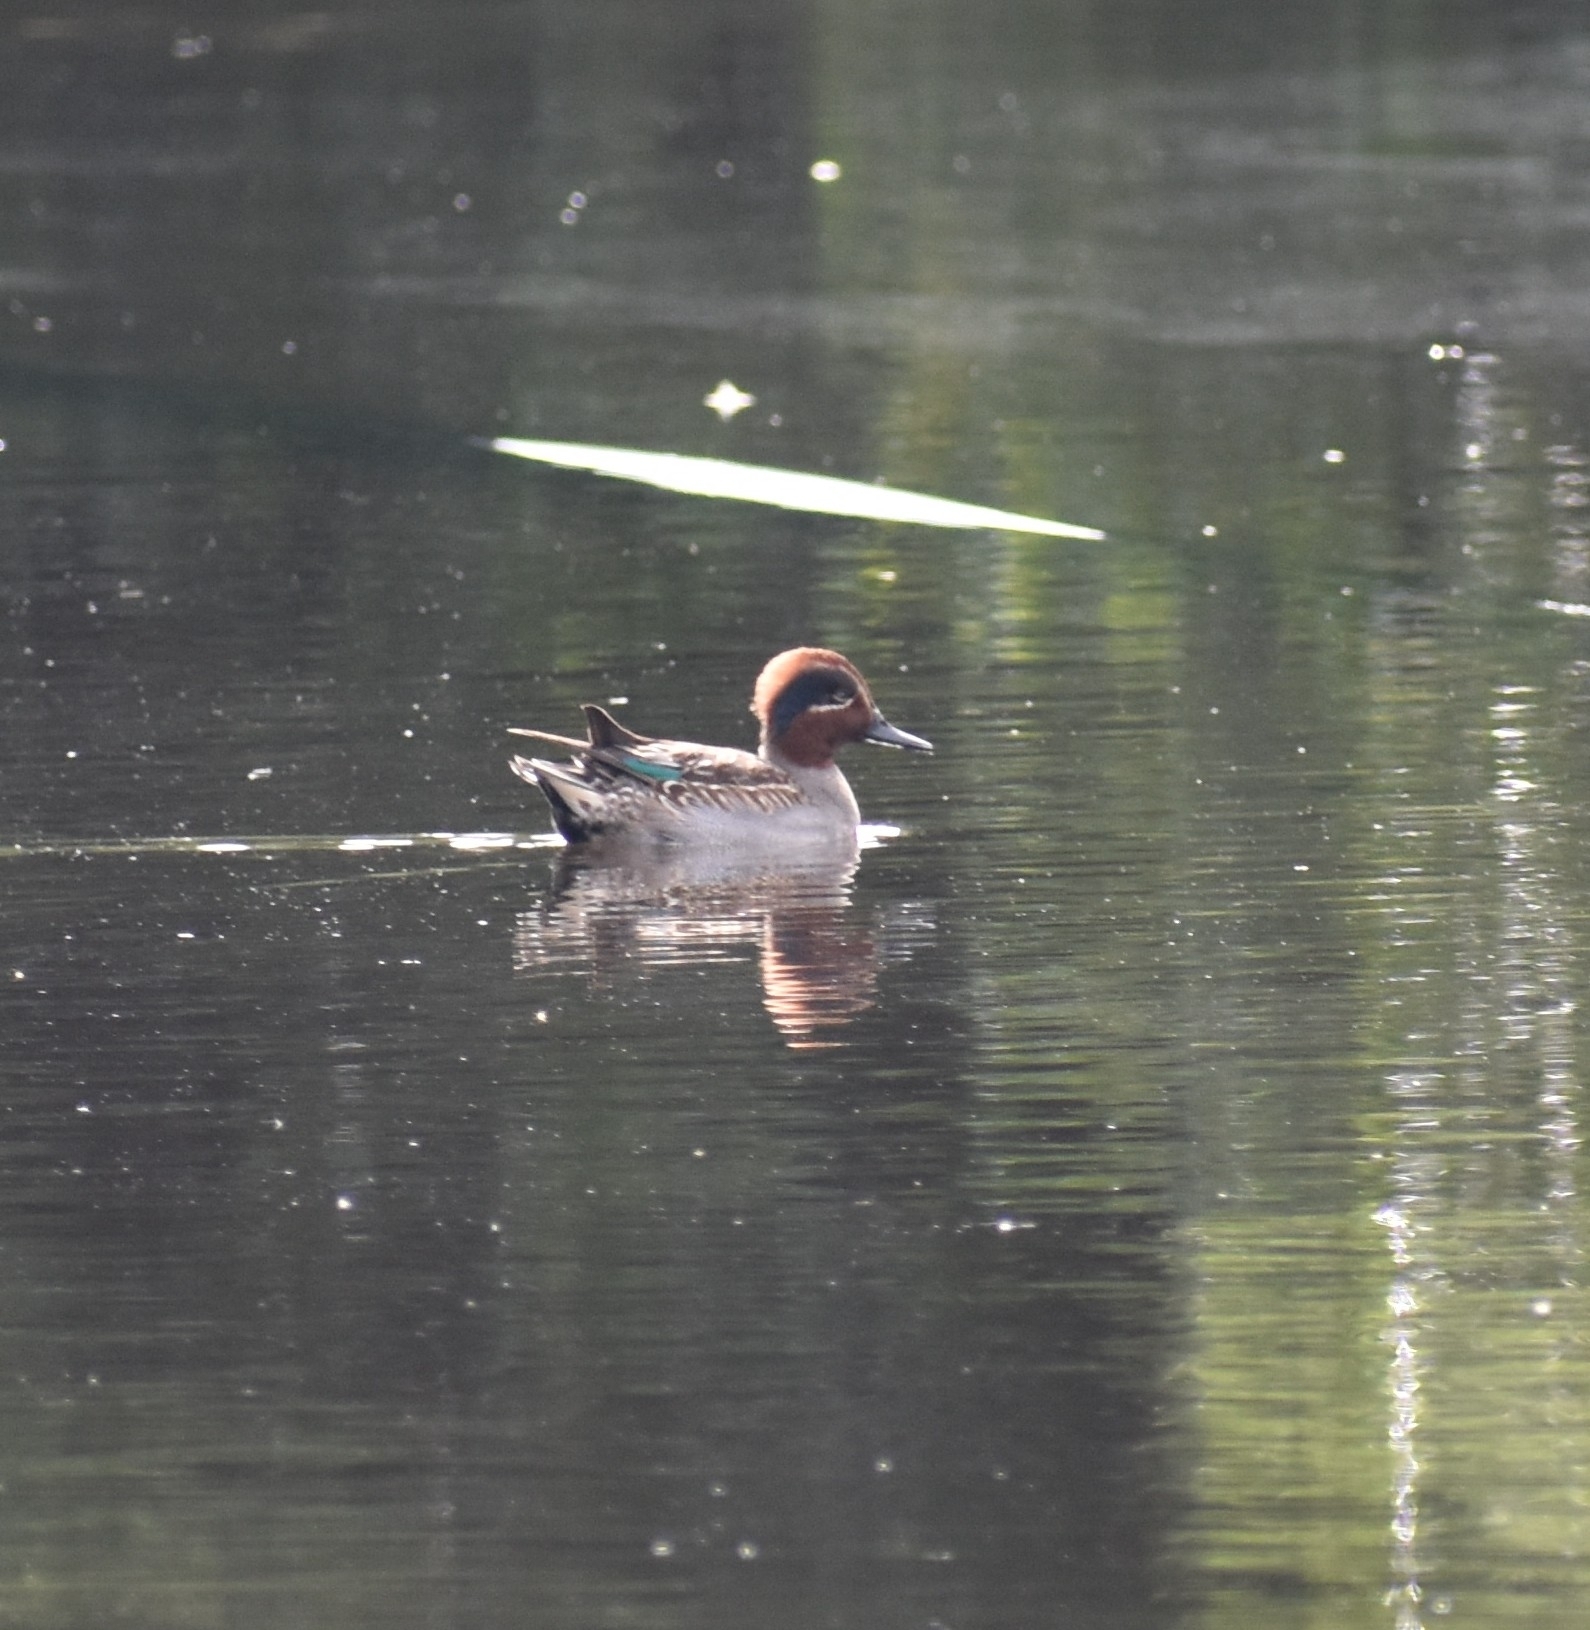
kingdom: Animalia
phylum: Chordata
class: Aves
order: Anseriformes
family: Anatidae
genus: Anas
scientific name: Anas crecca
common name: Eurasian teal
